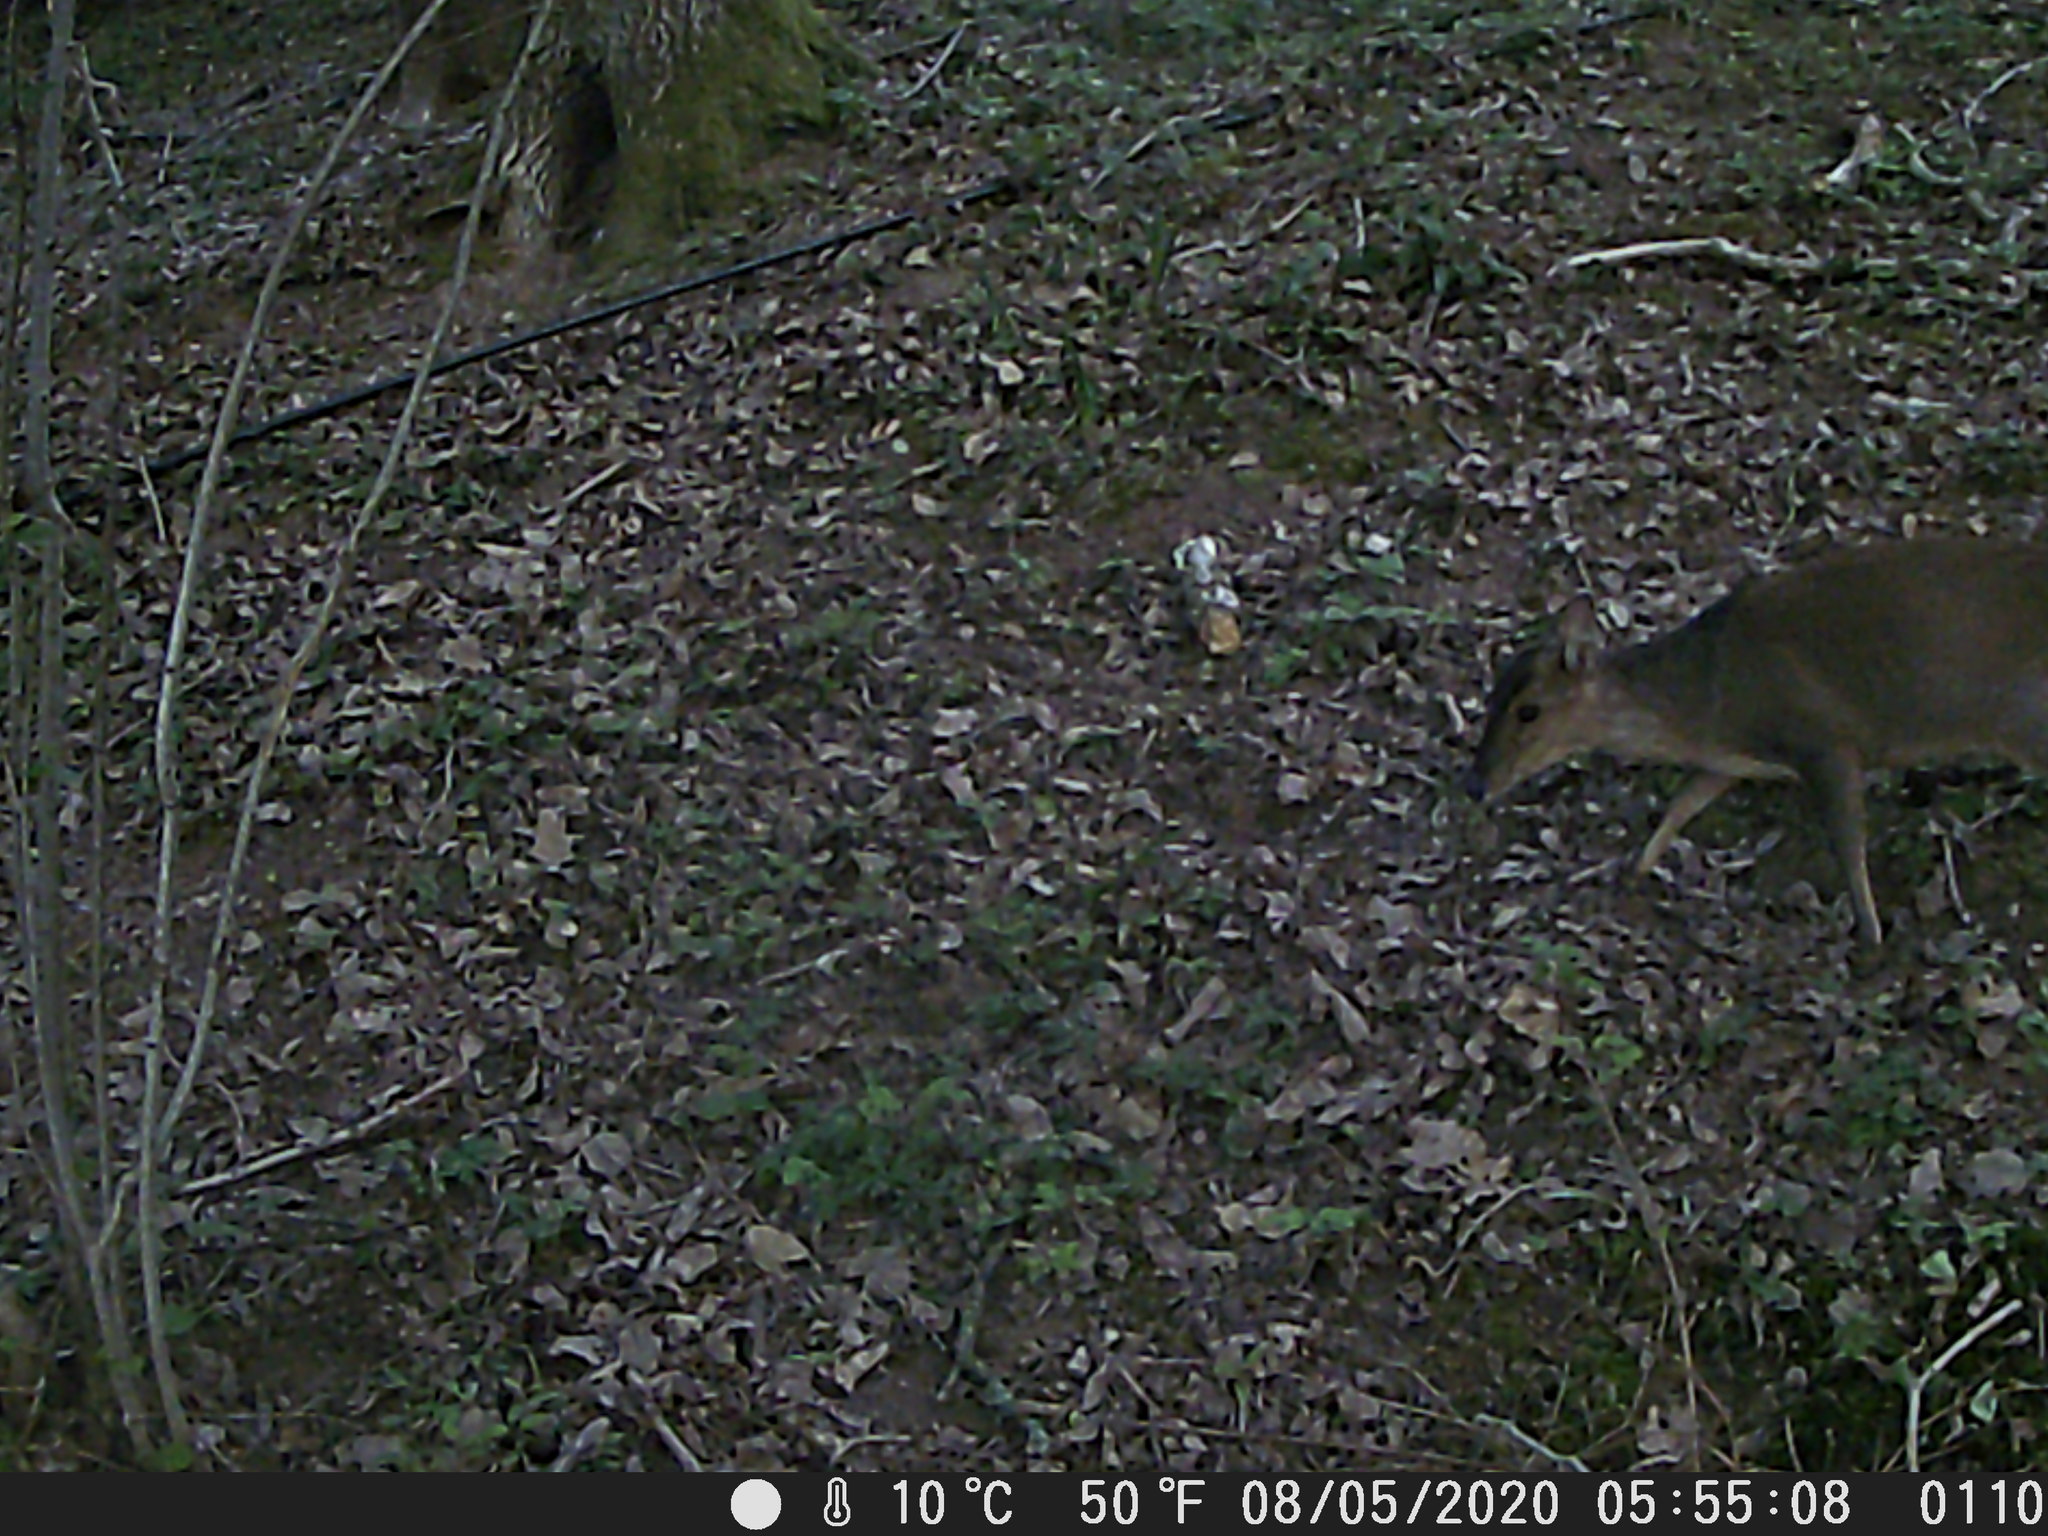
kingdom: Animalia
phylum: Chordata
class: Mammalia
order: Artiodactyla
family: Cervidae
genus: Muntiacus
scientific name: Muntiacus reevesi
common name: Reeves' muntjac
